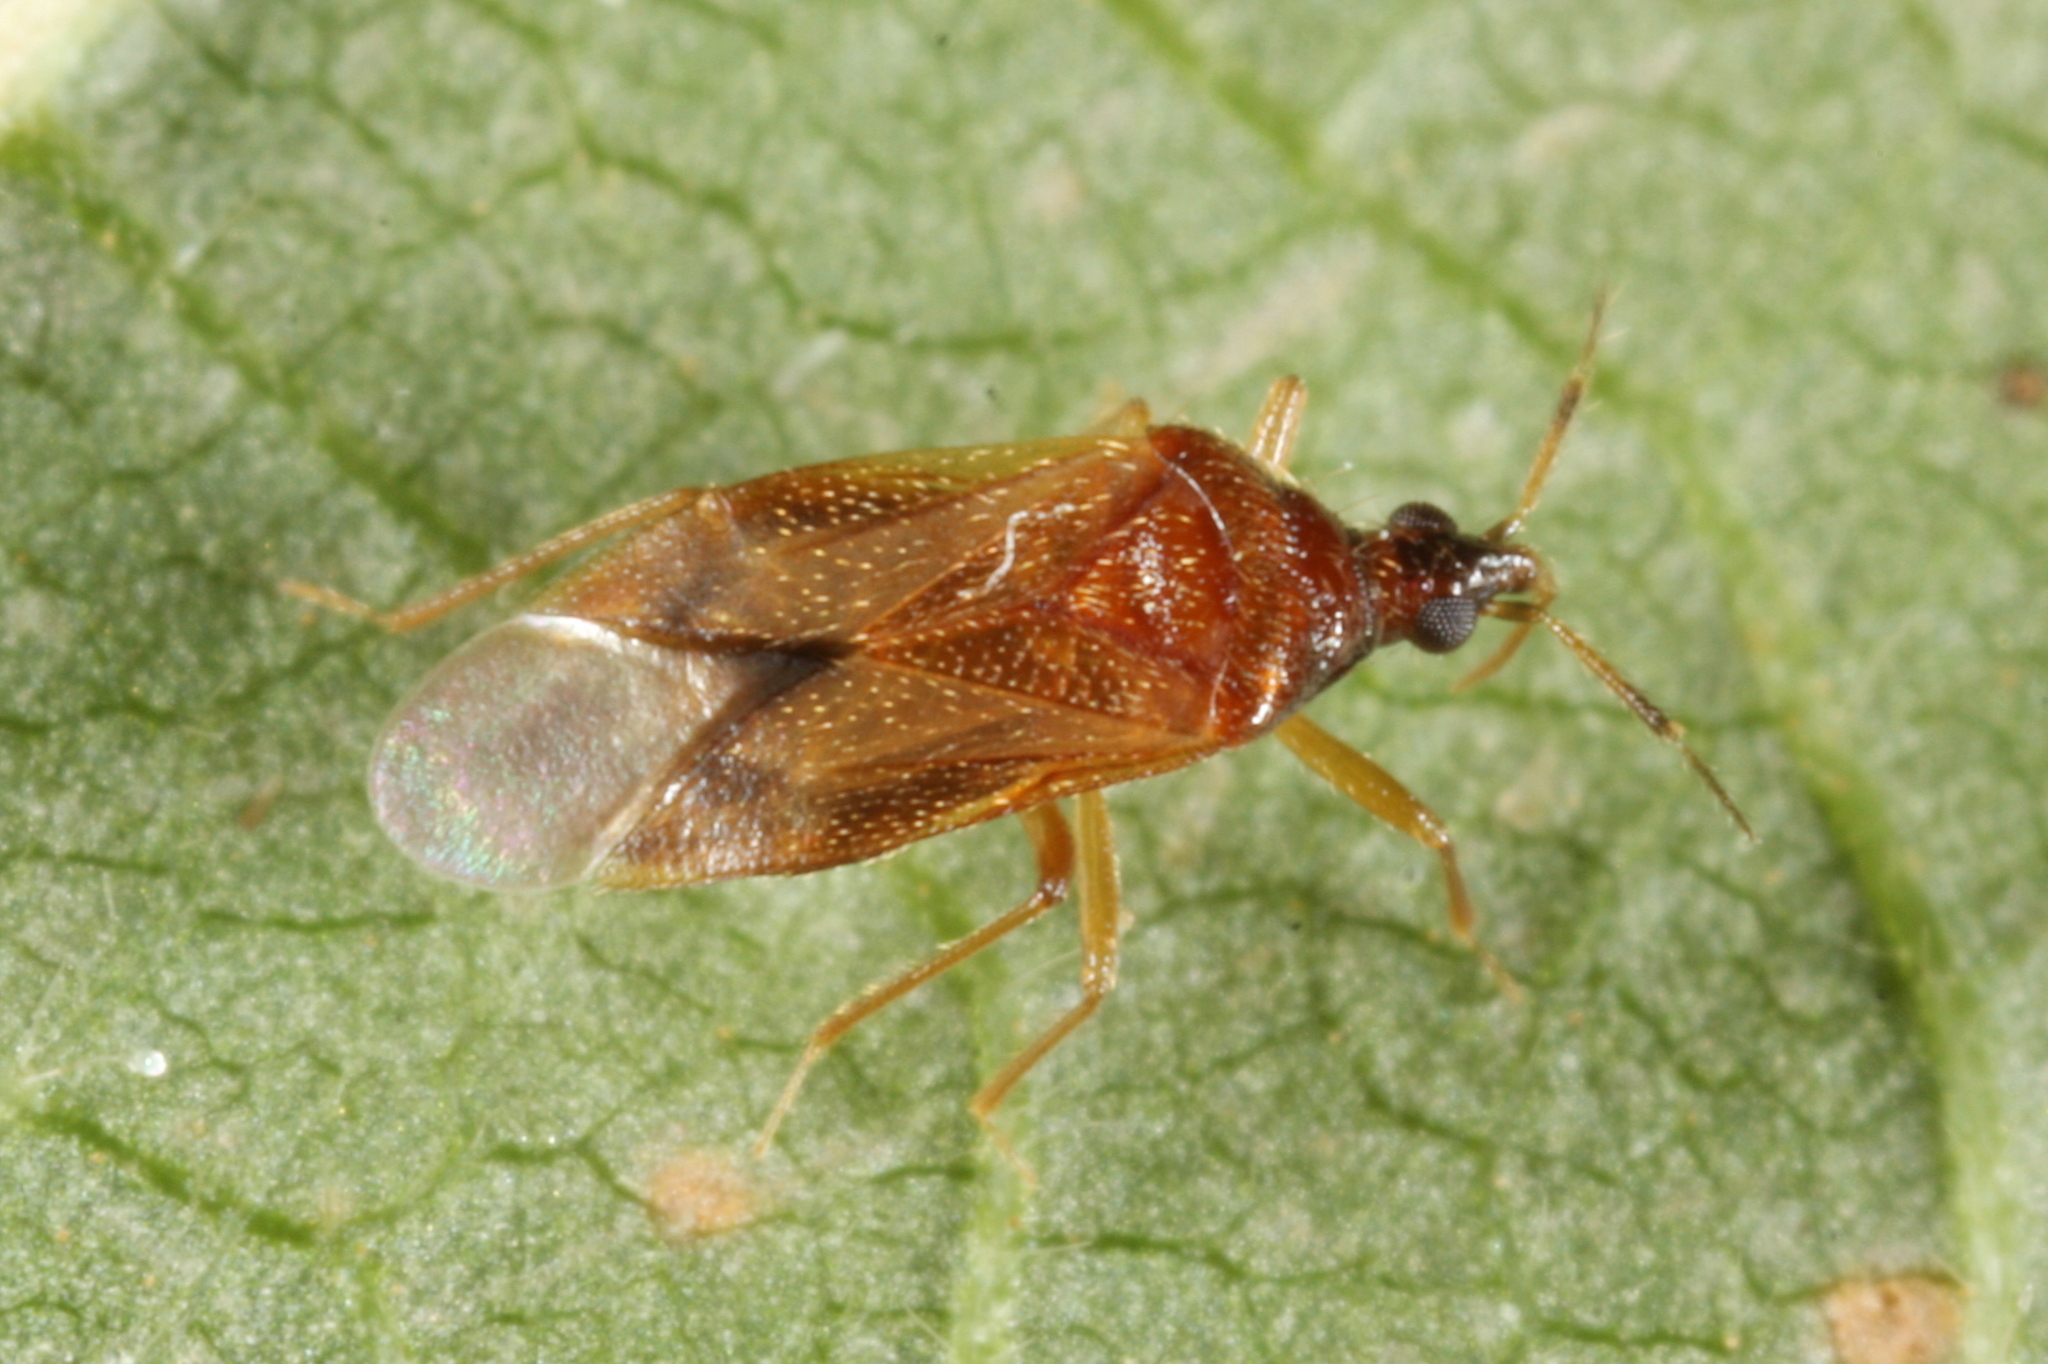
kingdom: Animalia
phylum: Arthropoda
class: Insecta
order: Hemiptera
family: Anthocoridae
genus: Amphiareus
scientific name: Amphiareus obscuriceps
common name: Minute pirate bug
